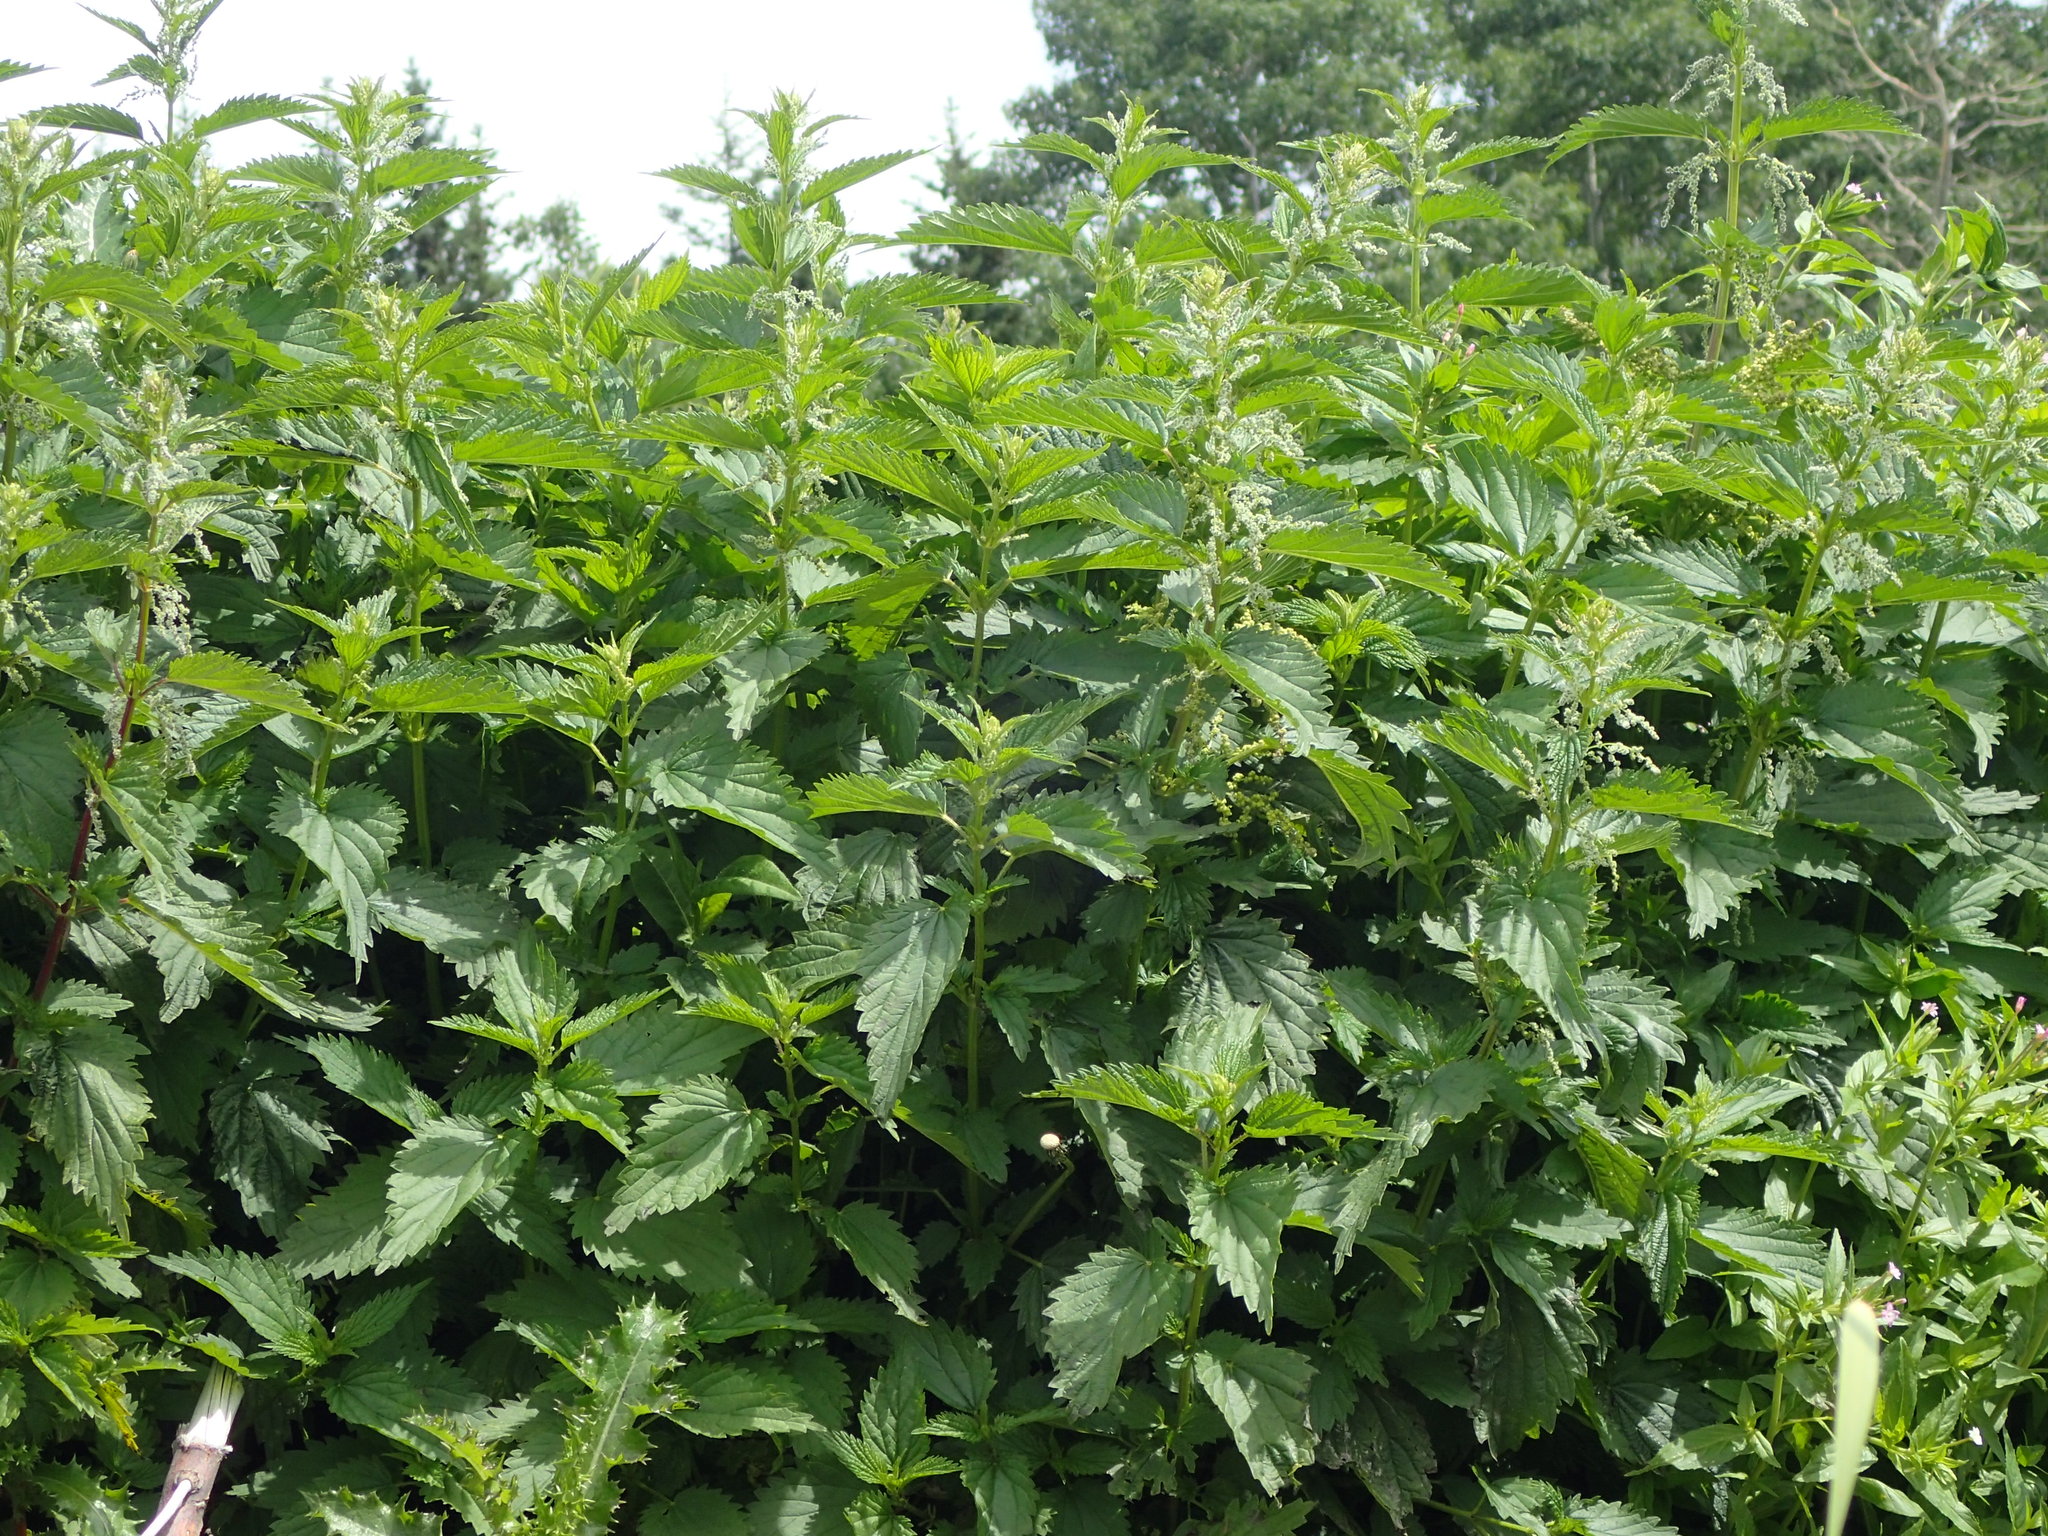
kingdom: Plantae
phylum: Tracheophyta
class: Magnoliopsida
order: Rosales
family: Urticaceae
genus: Urtica
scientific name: Urtica gracilis
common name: Slender stinging nettle
